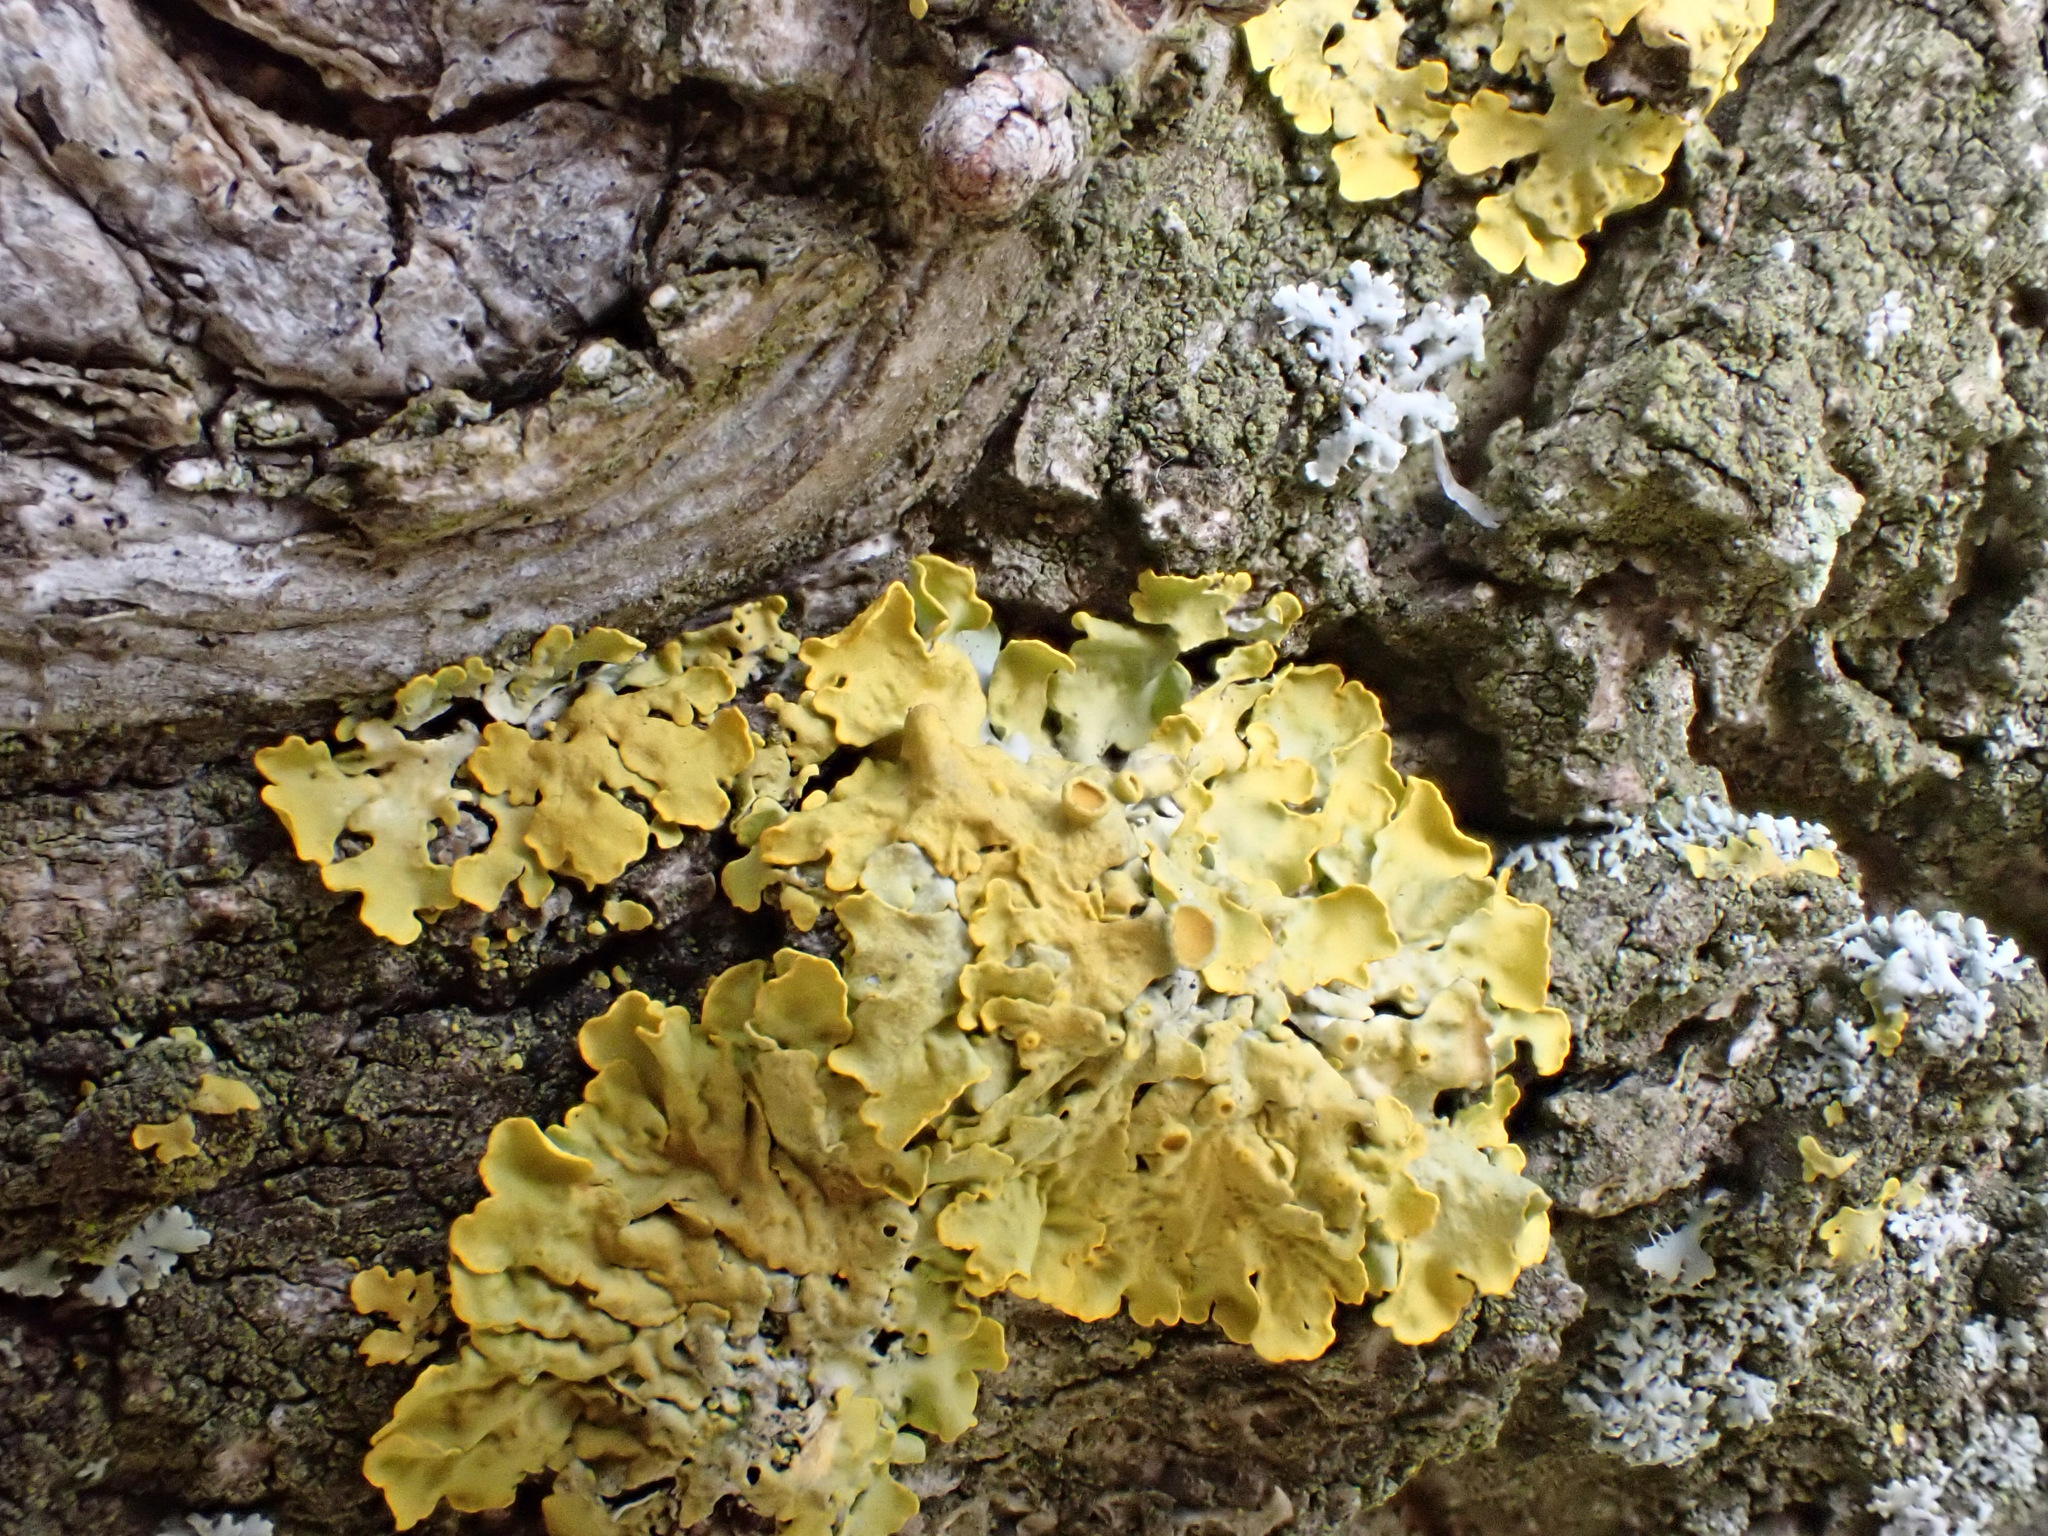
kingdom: Fungi
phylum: Ascomycota
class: Lecanoromycetes
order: Teloschistales
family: Teloschistaceae
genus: Xanthoria
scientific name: Xanthoria parietina
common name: Common orange lichen
